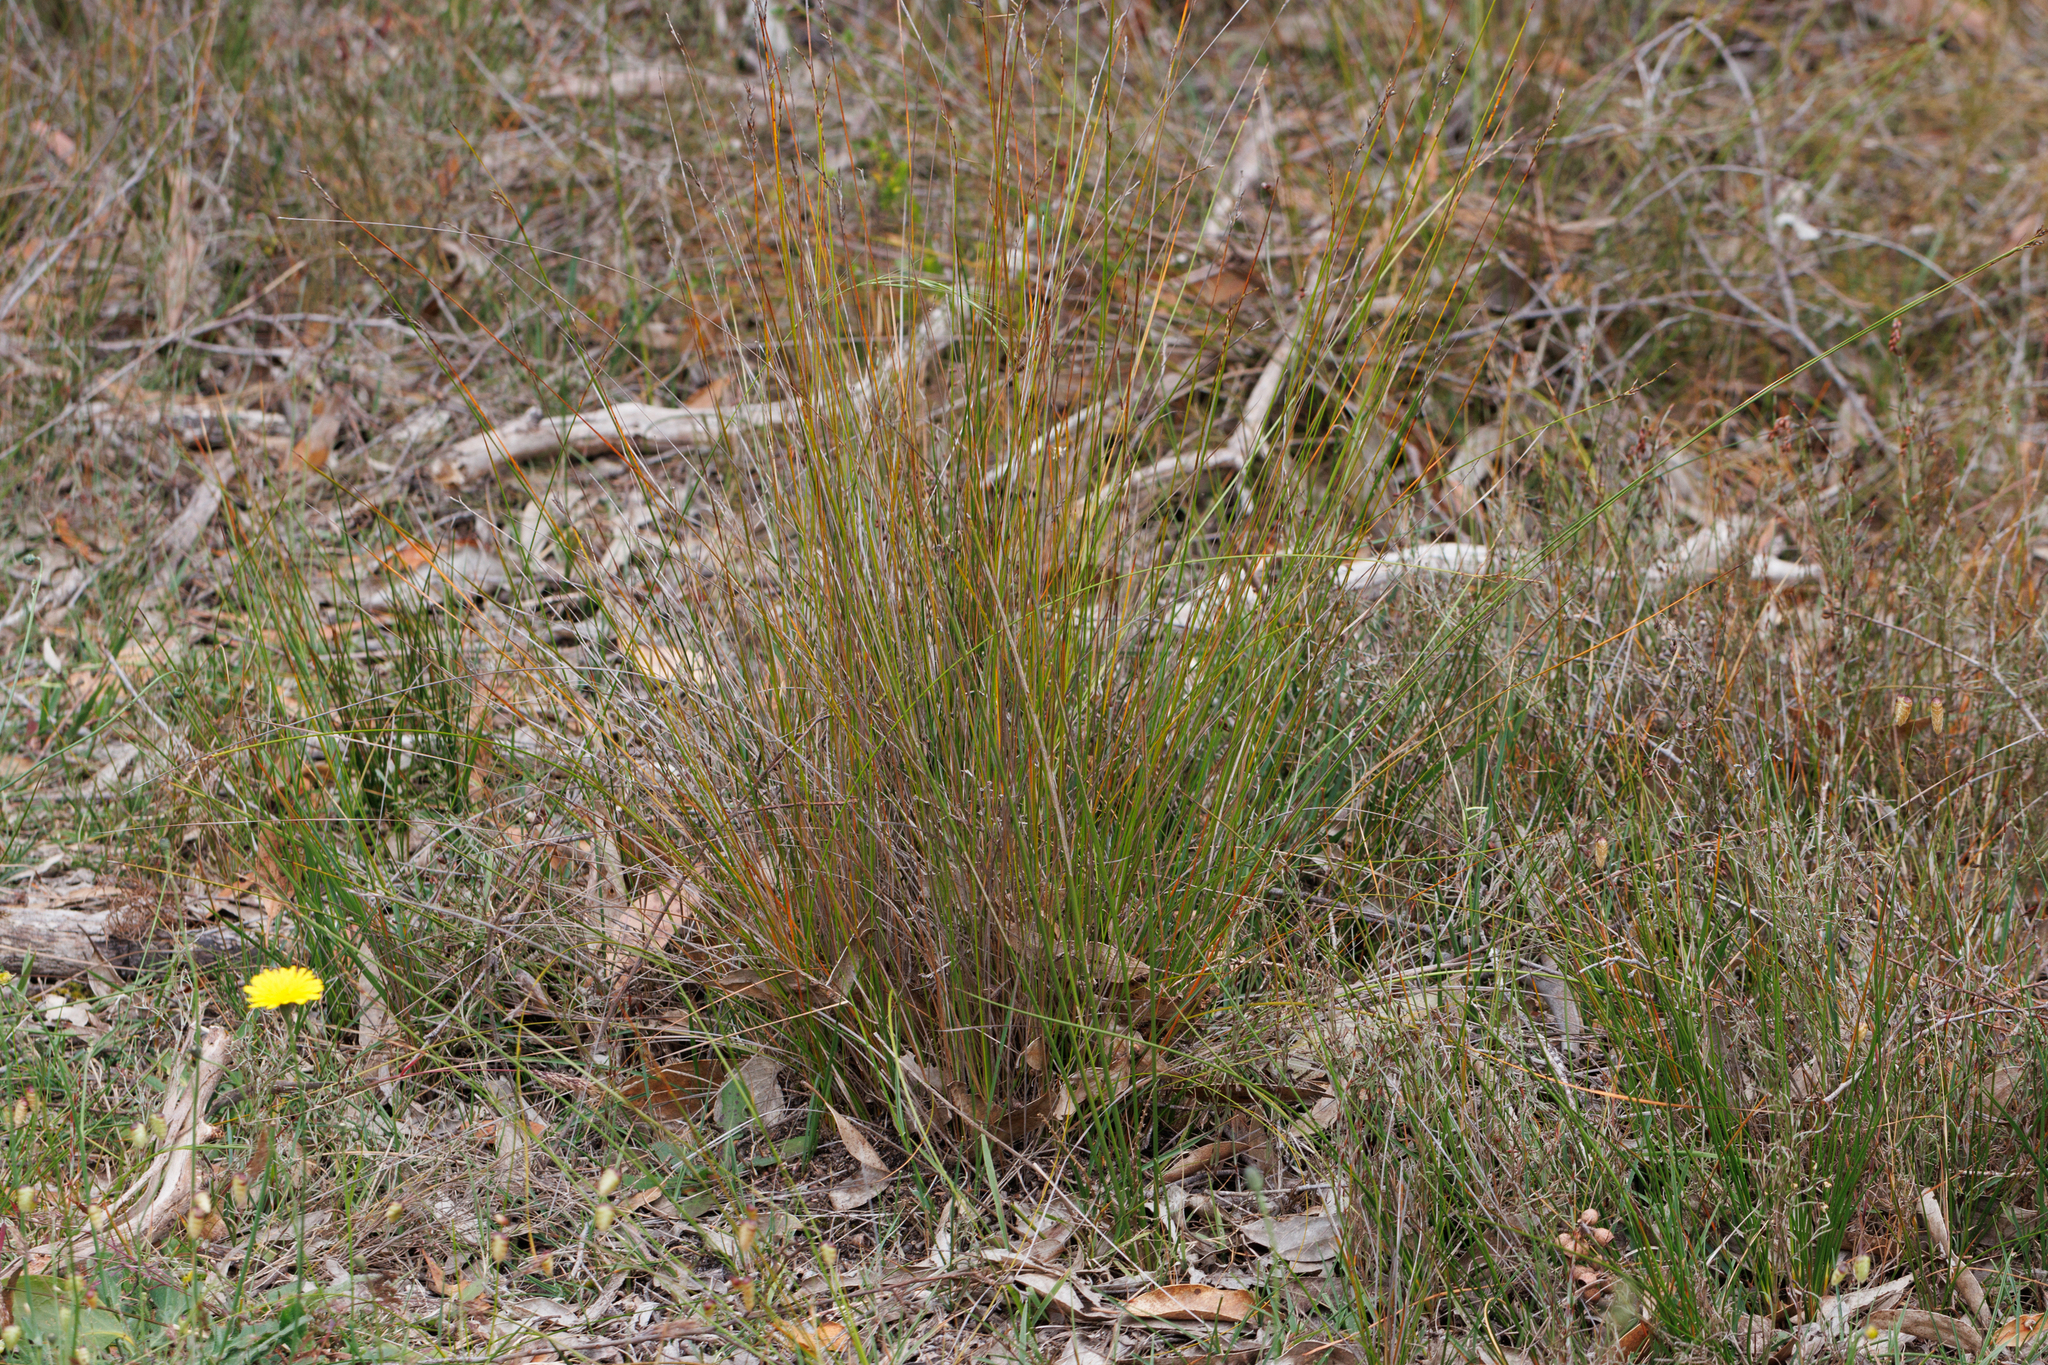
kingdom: Plantae
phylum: Tracheophyta
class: Liliopsida
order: Poales
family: Cyperaceae
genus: Lepidosperma
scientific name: Lepidosperma semiteres
